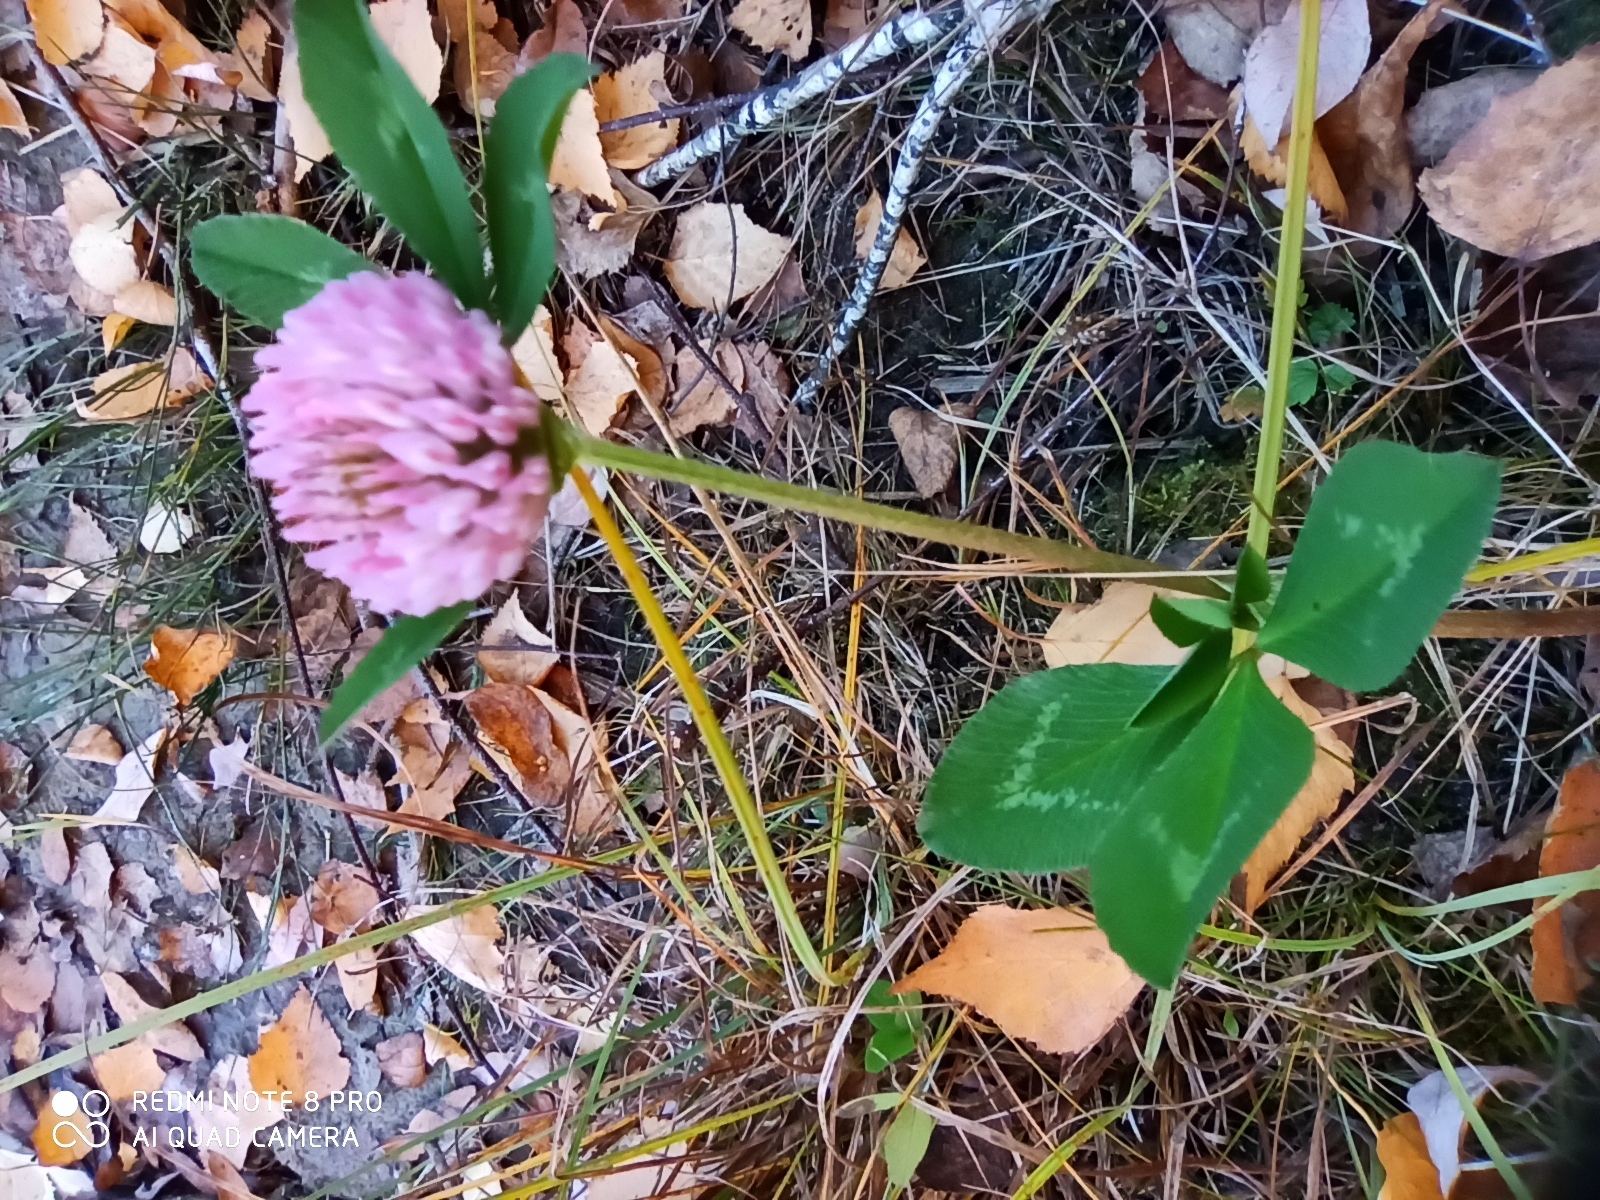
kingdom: Plantae
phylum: Tracheophyta
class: Magnoliopsida
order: Fabales
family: Fabaceae
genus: Trifolium
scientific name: Trifolium pratense
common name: Red clover
